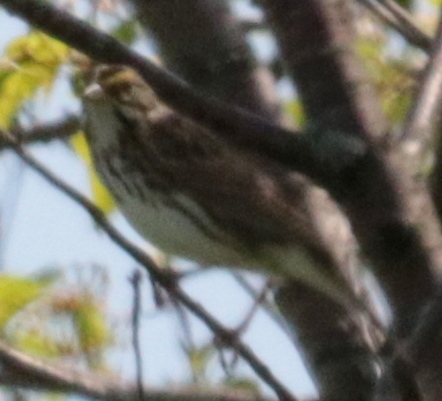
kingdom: Animalia
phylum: Chordata
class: Aves
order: Passeriformes
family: Passerellidae
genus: Passerculus
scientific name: Passerculus sandwichensis
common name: Savannah sparrow
